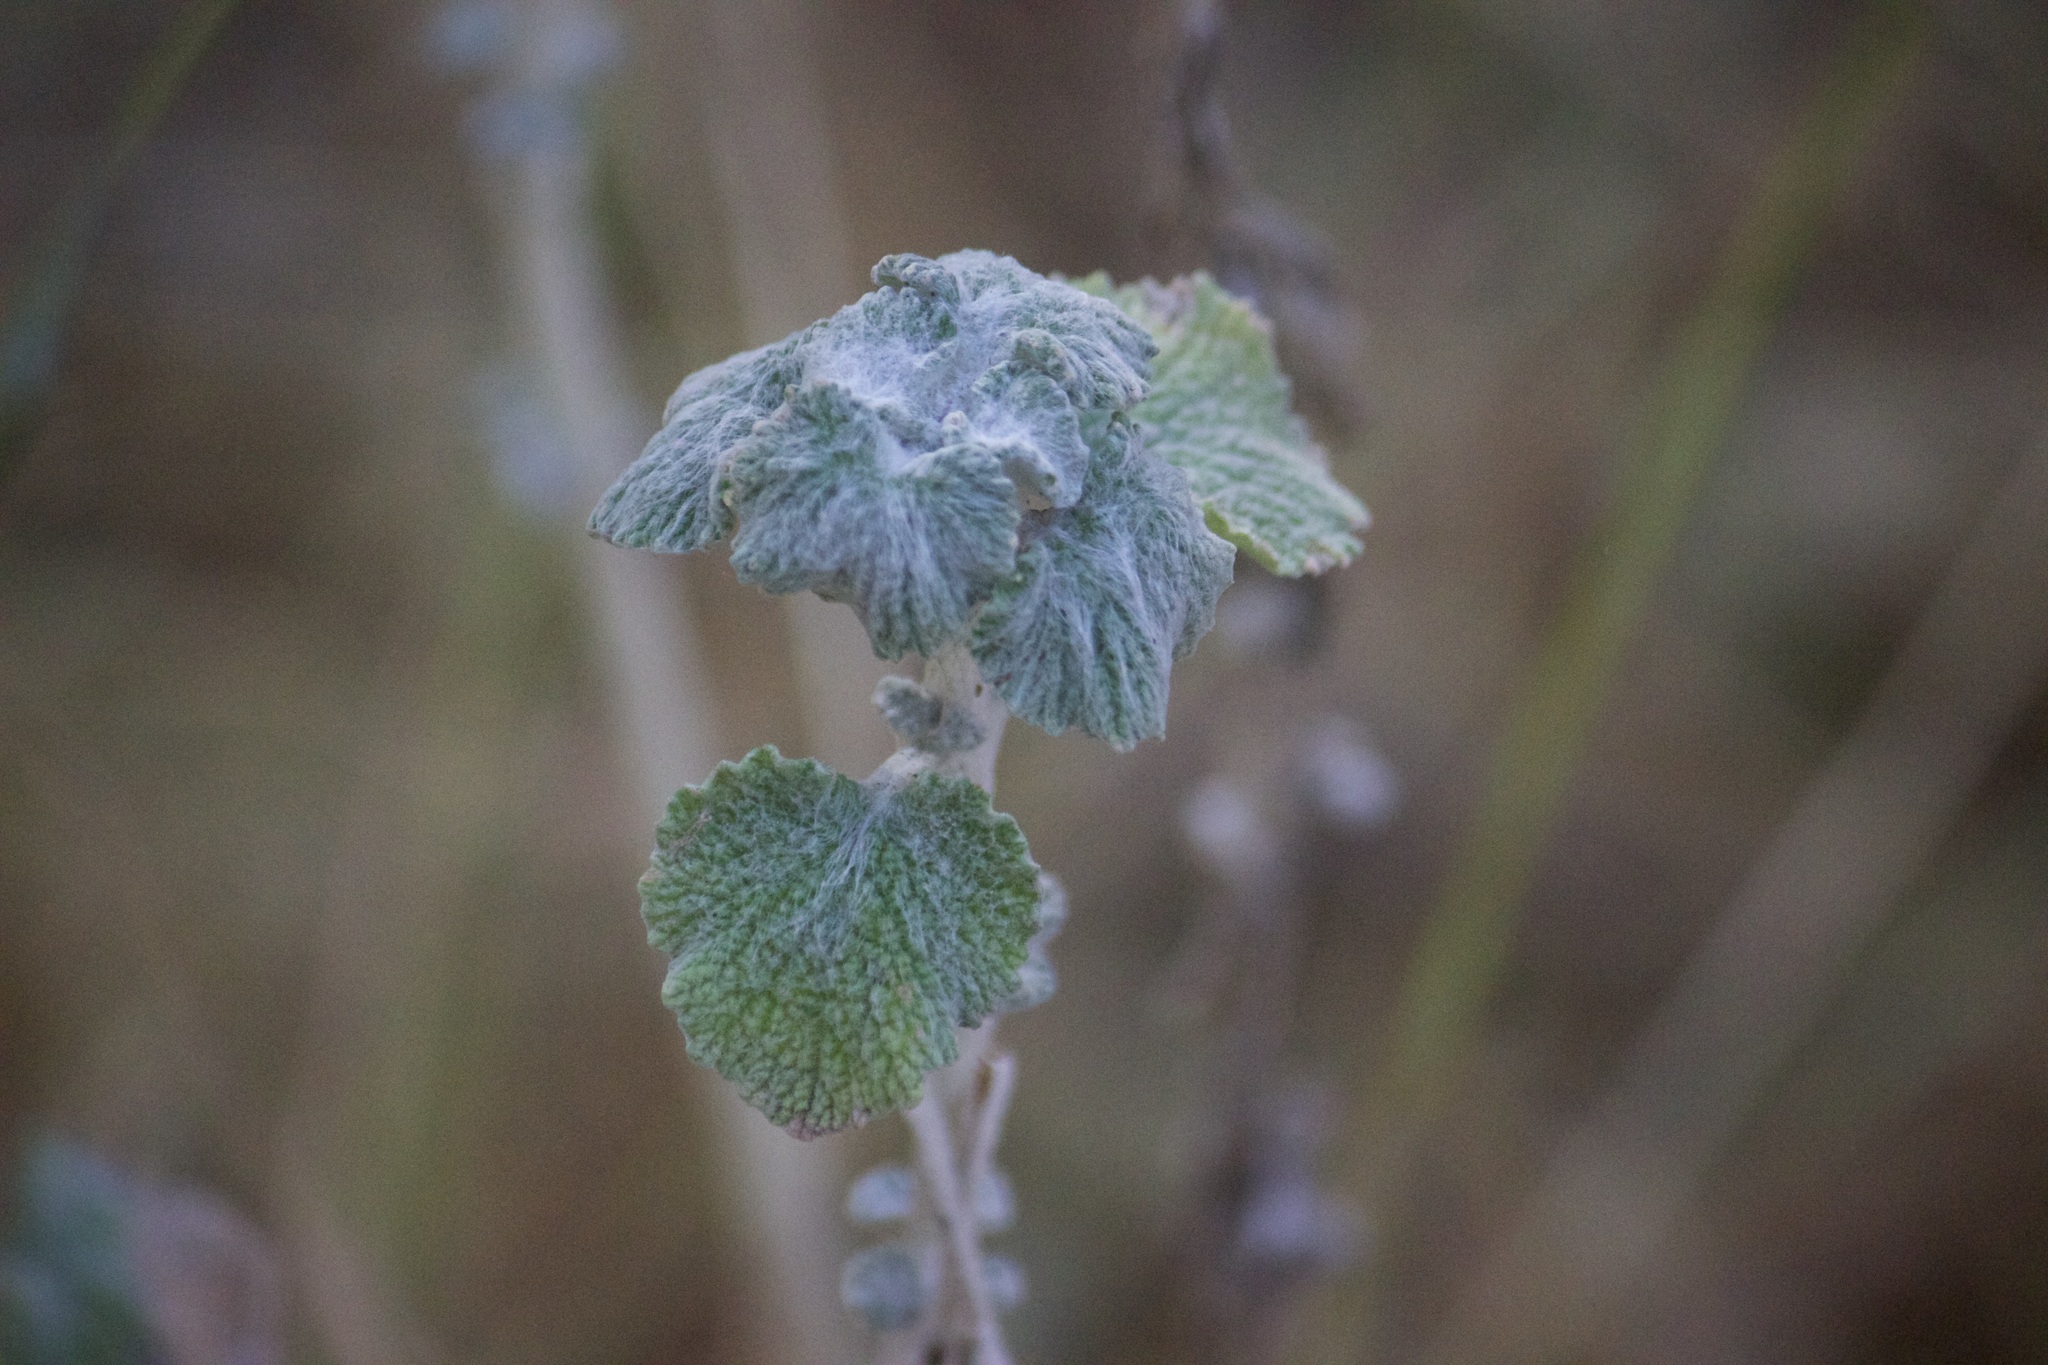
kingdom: Plantae
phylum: Tracheophyta
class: Magnoliopsida
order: Lamiales
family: Lamiaceae
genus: Marrubium
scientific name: Marrubium vulgare
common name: Horehound
